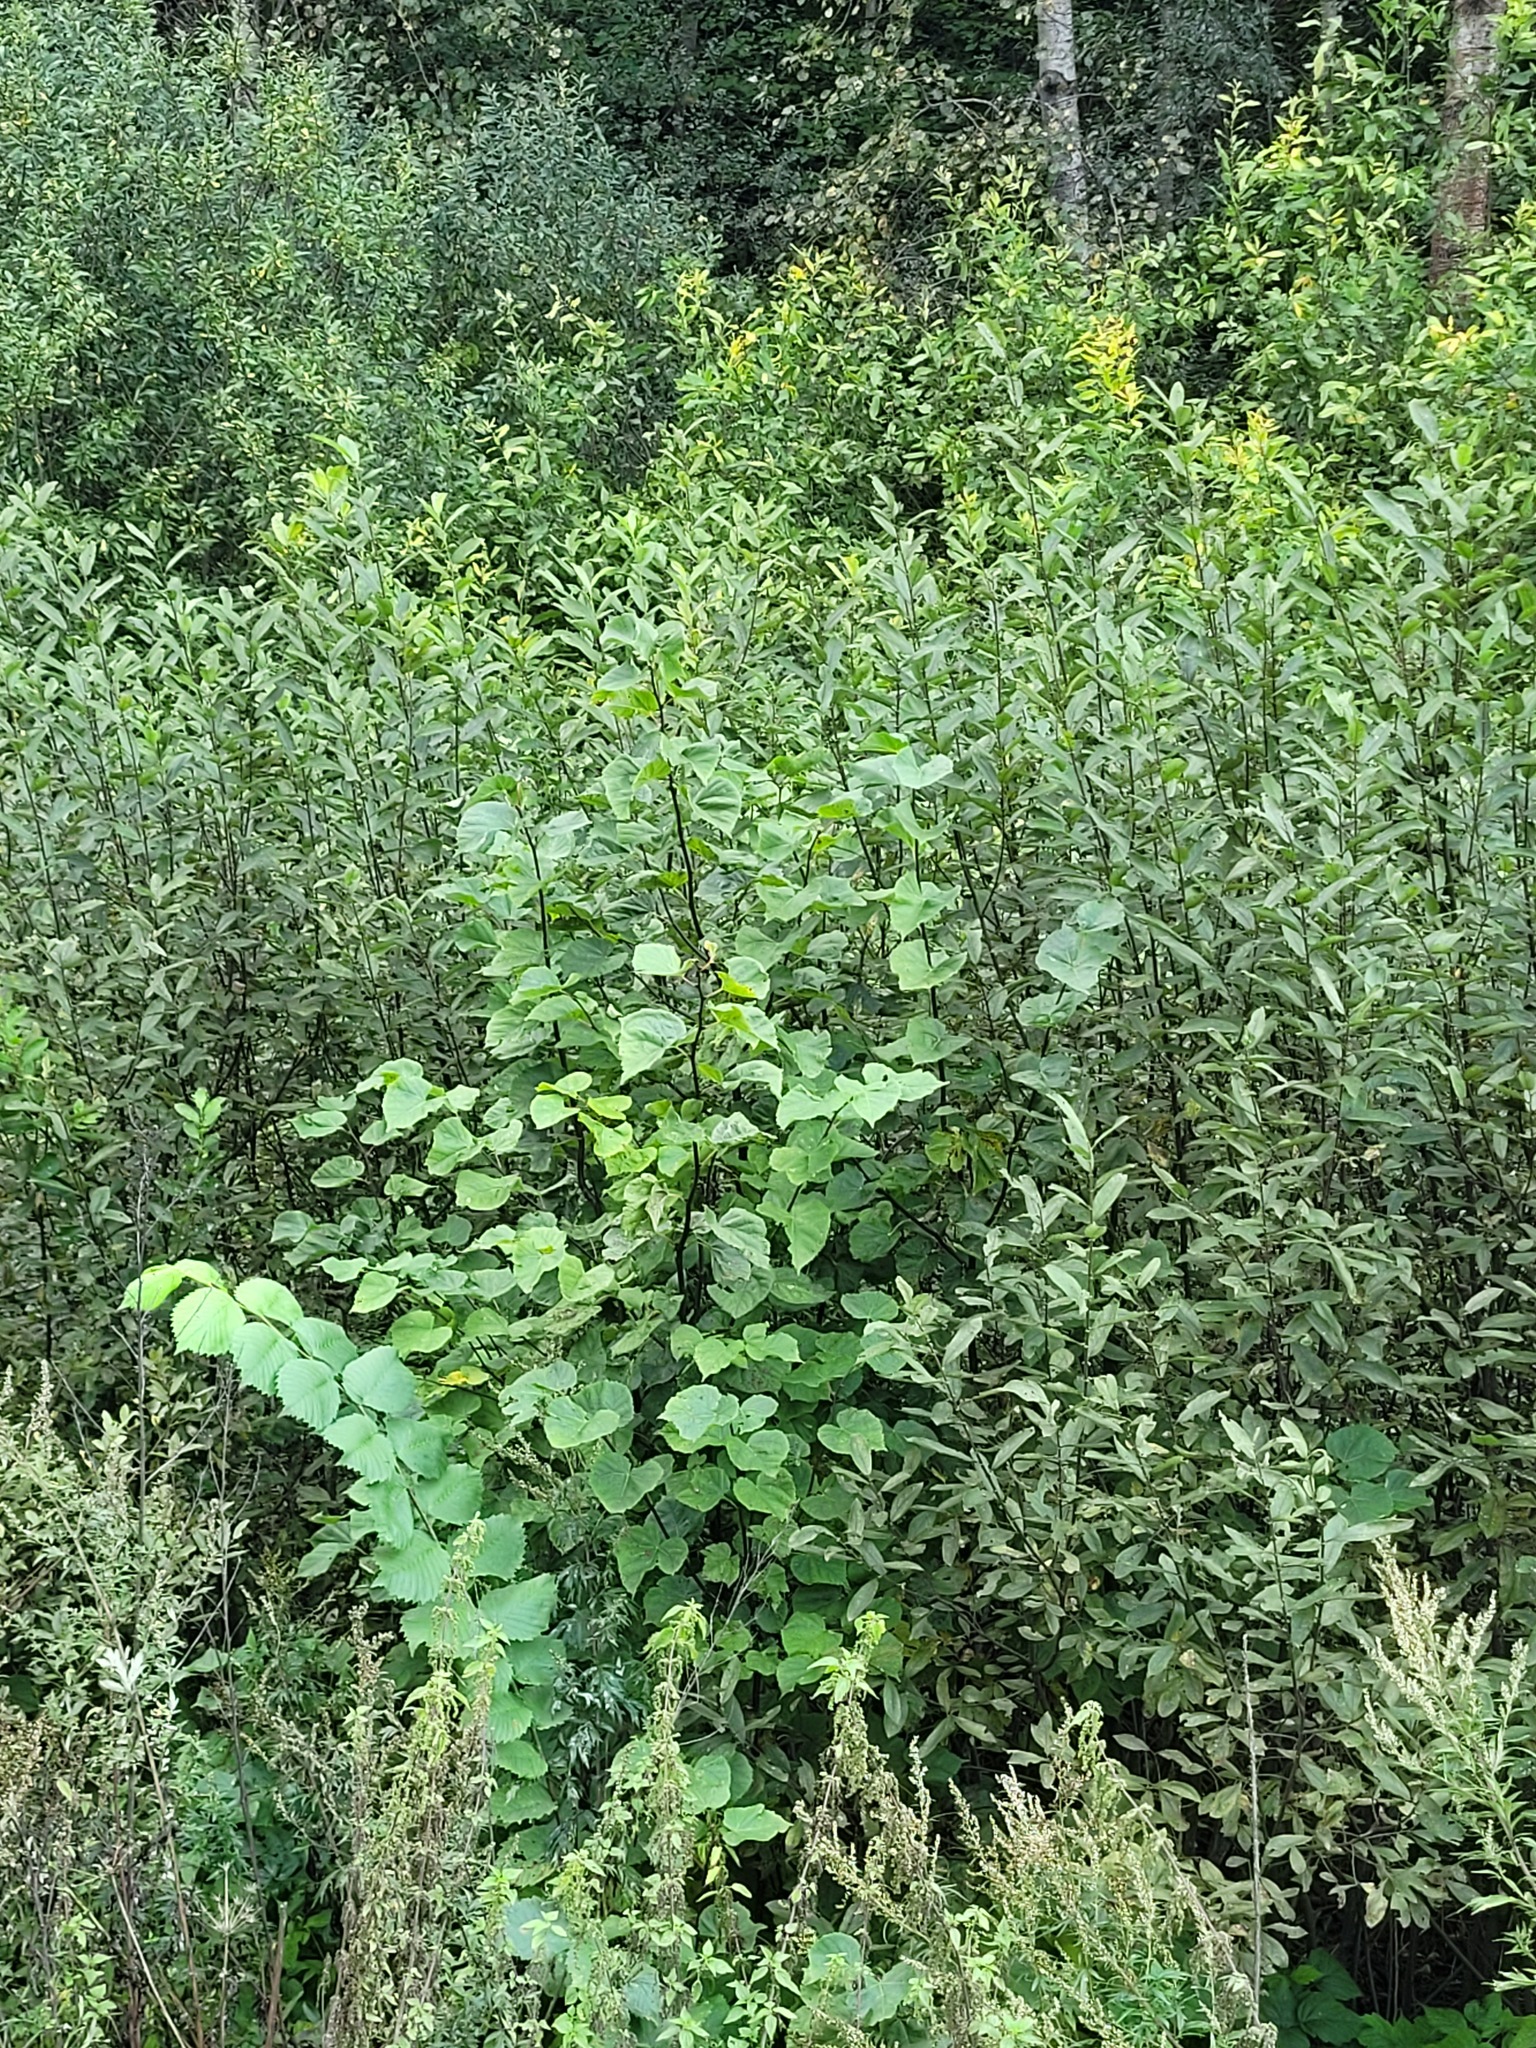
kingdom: Plantae
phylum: Tracheophyta
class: Magnoliopsida
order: Malvales
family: Malvaceae
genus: Tilia
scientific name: Tilia cordata
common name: Small-leaved lime
